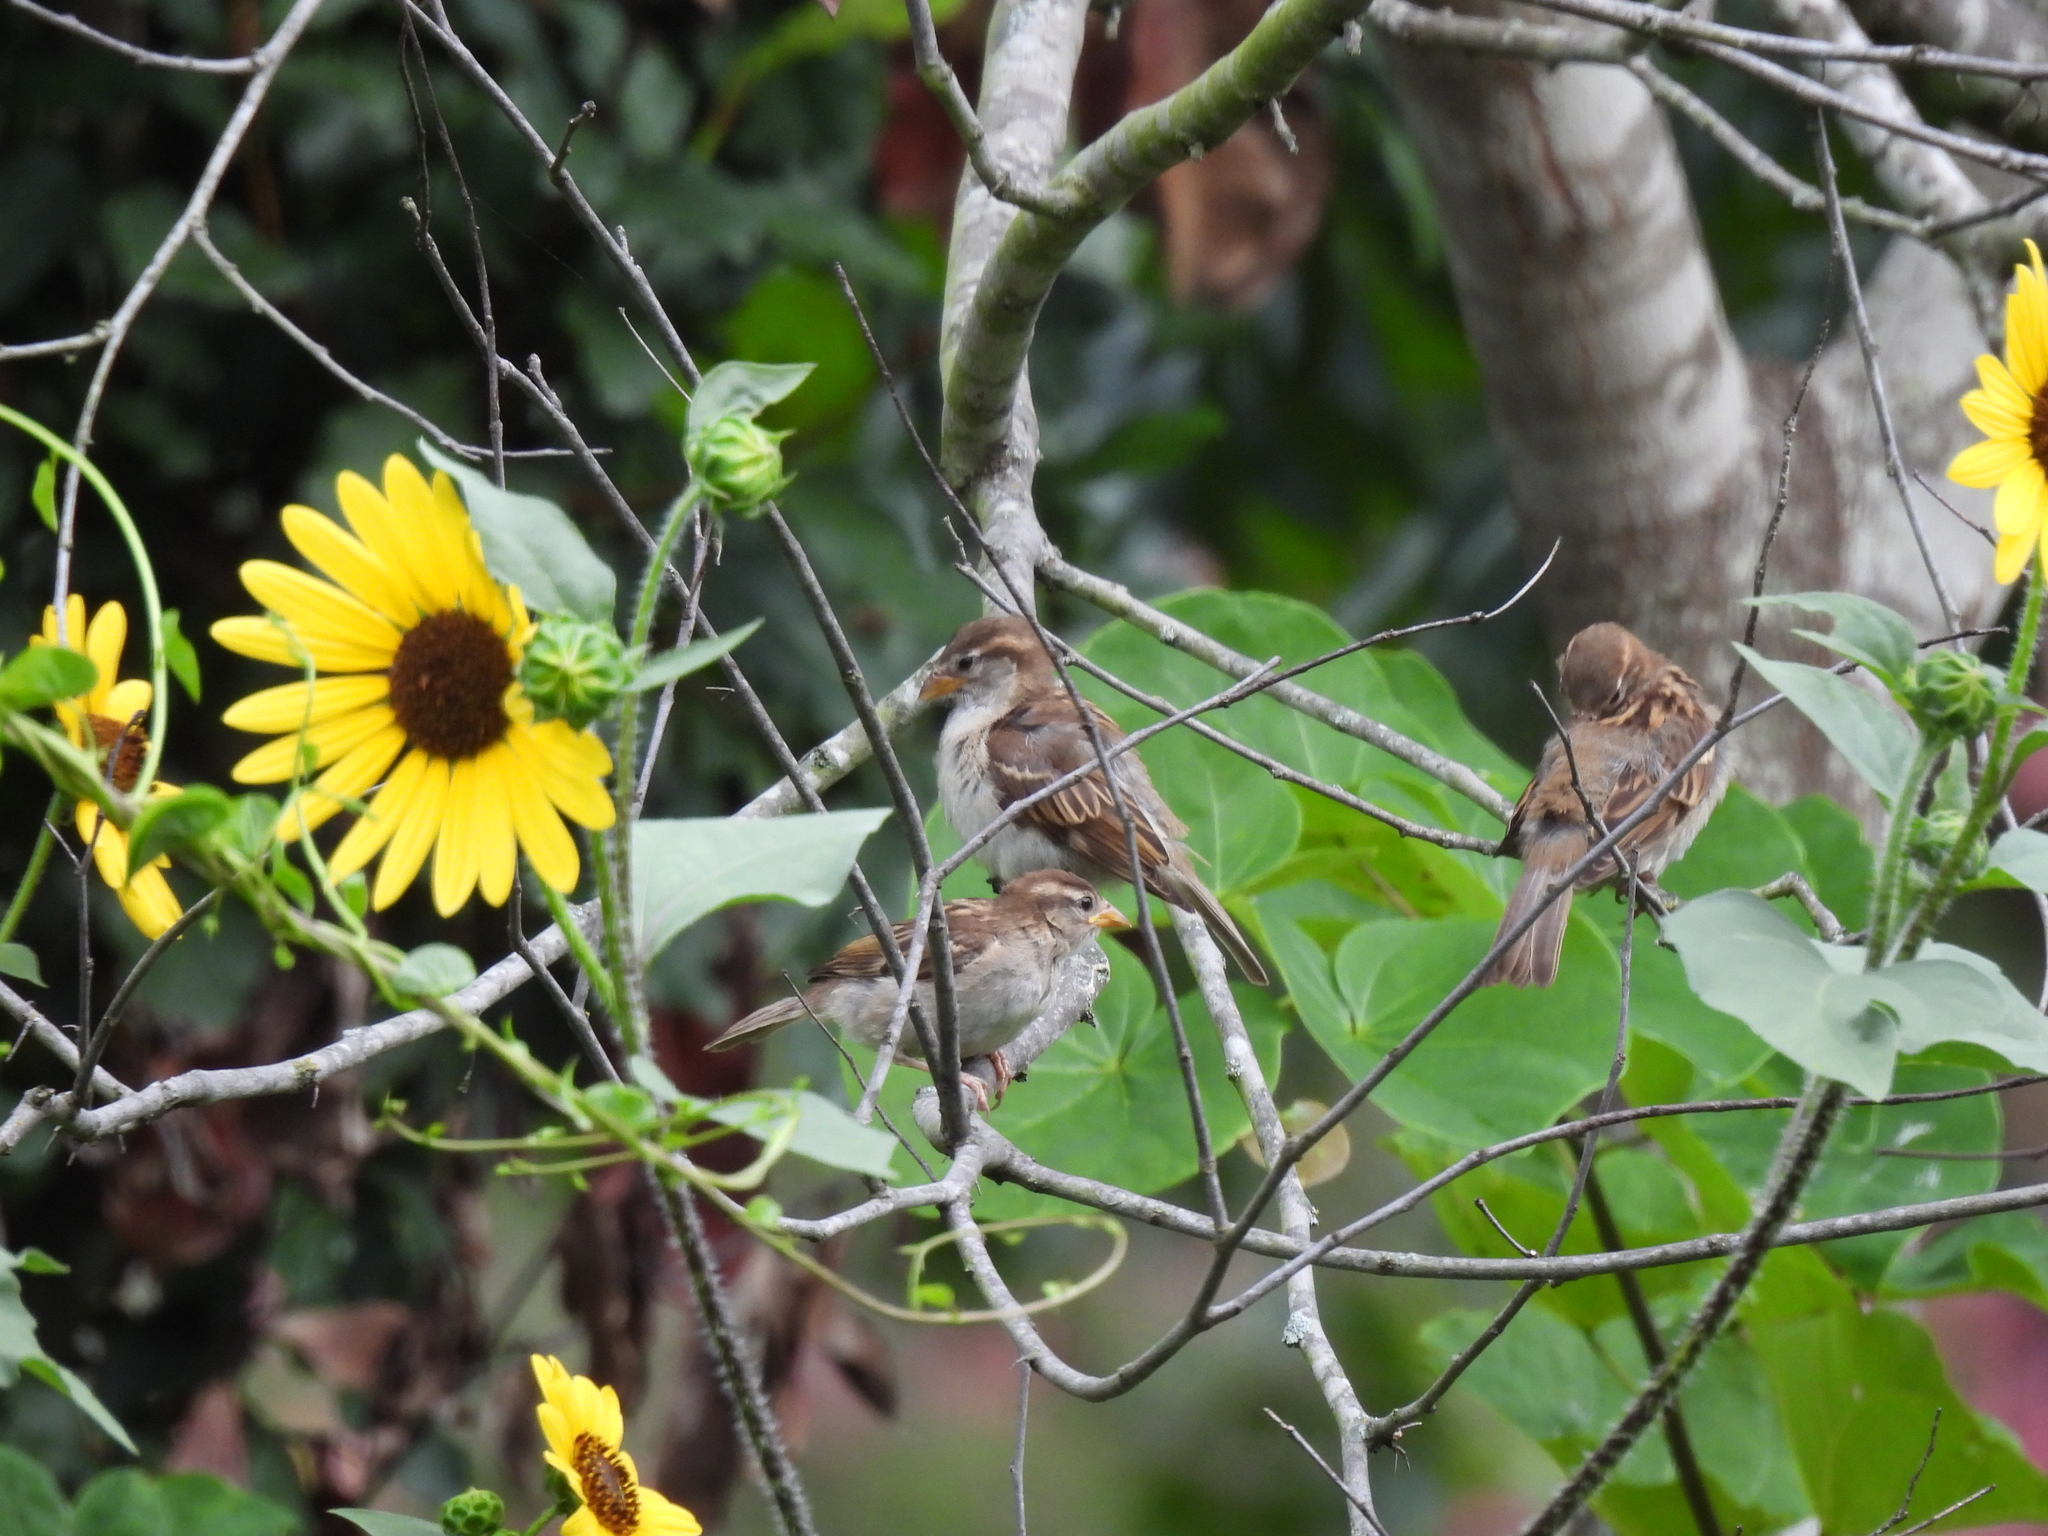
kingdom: Animalia
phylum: Chordata
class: Aves
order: Passeriformes
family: Passeridae
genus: Passer
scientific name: Passer domesticus
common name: House sparrow
